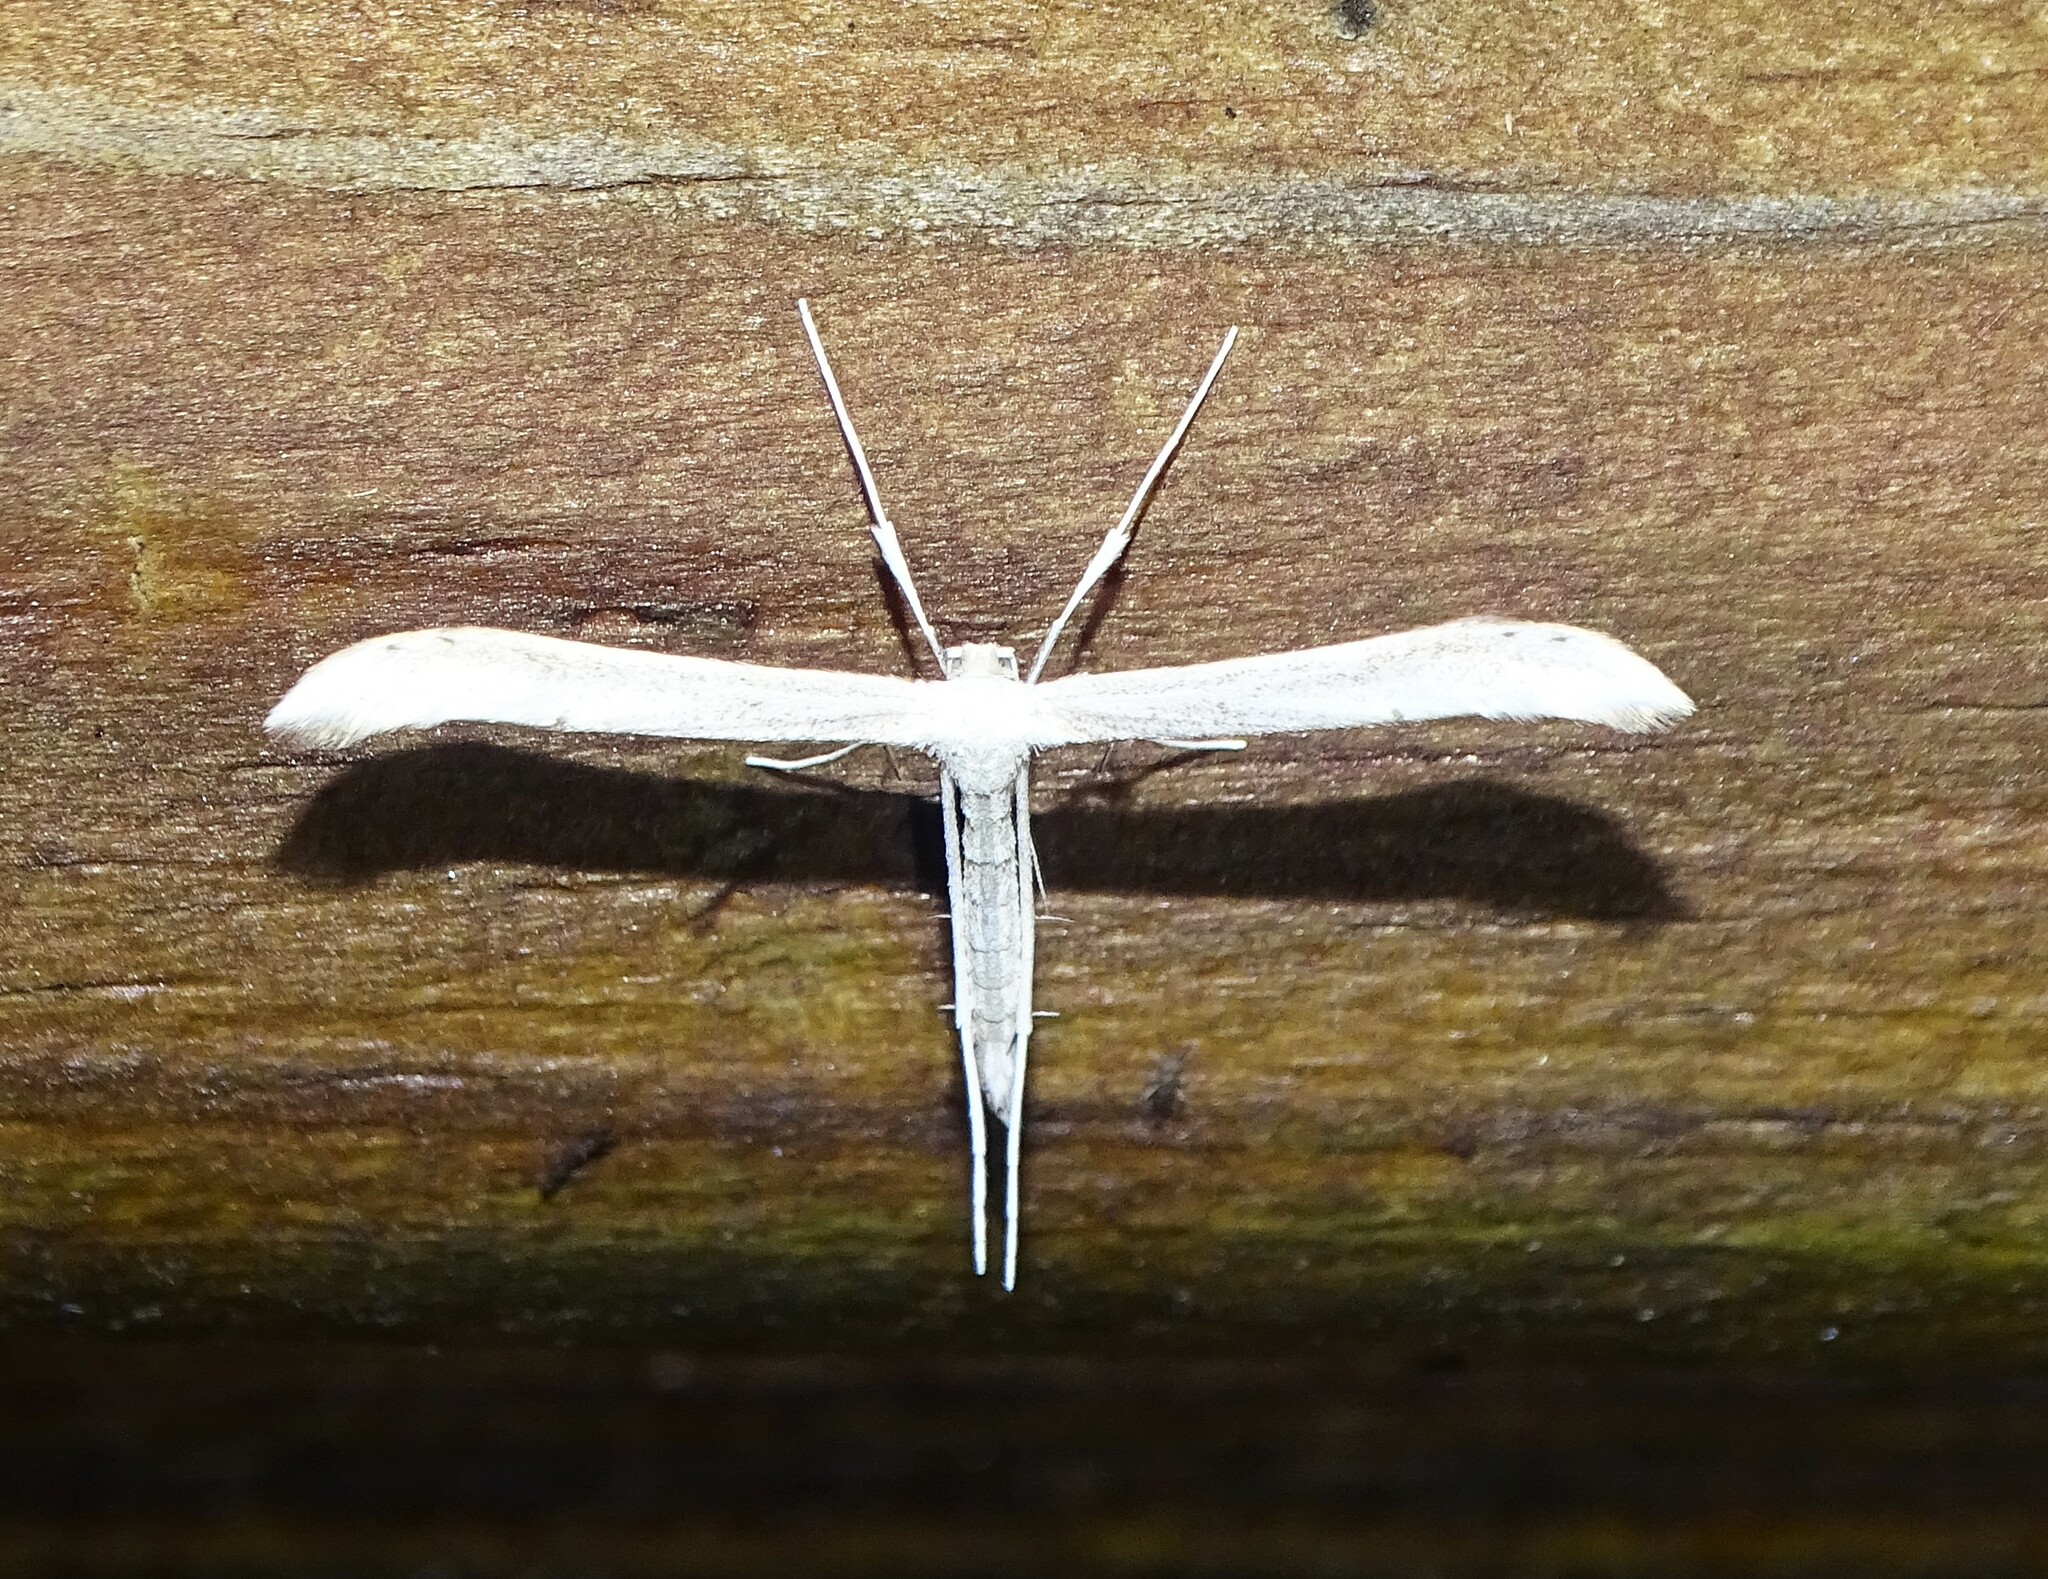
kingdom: Animalia
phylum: Arthropoda
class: Insecta
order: Lepidoptera
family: Pterophoridae
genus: Hellinsia
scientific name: Hellinsia
